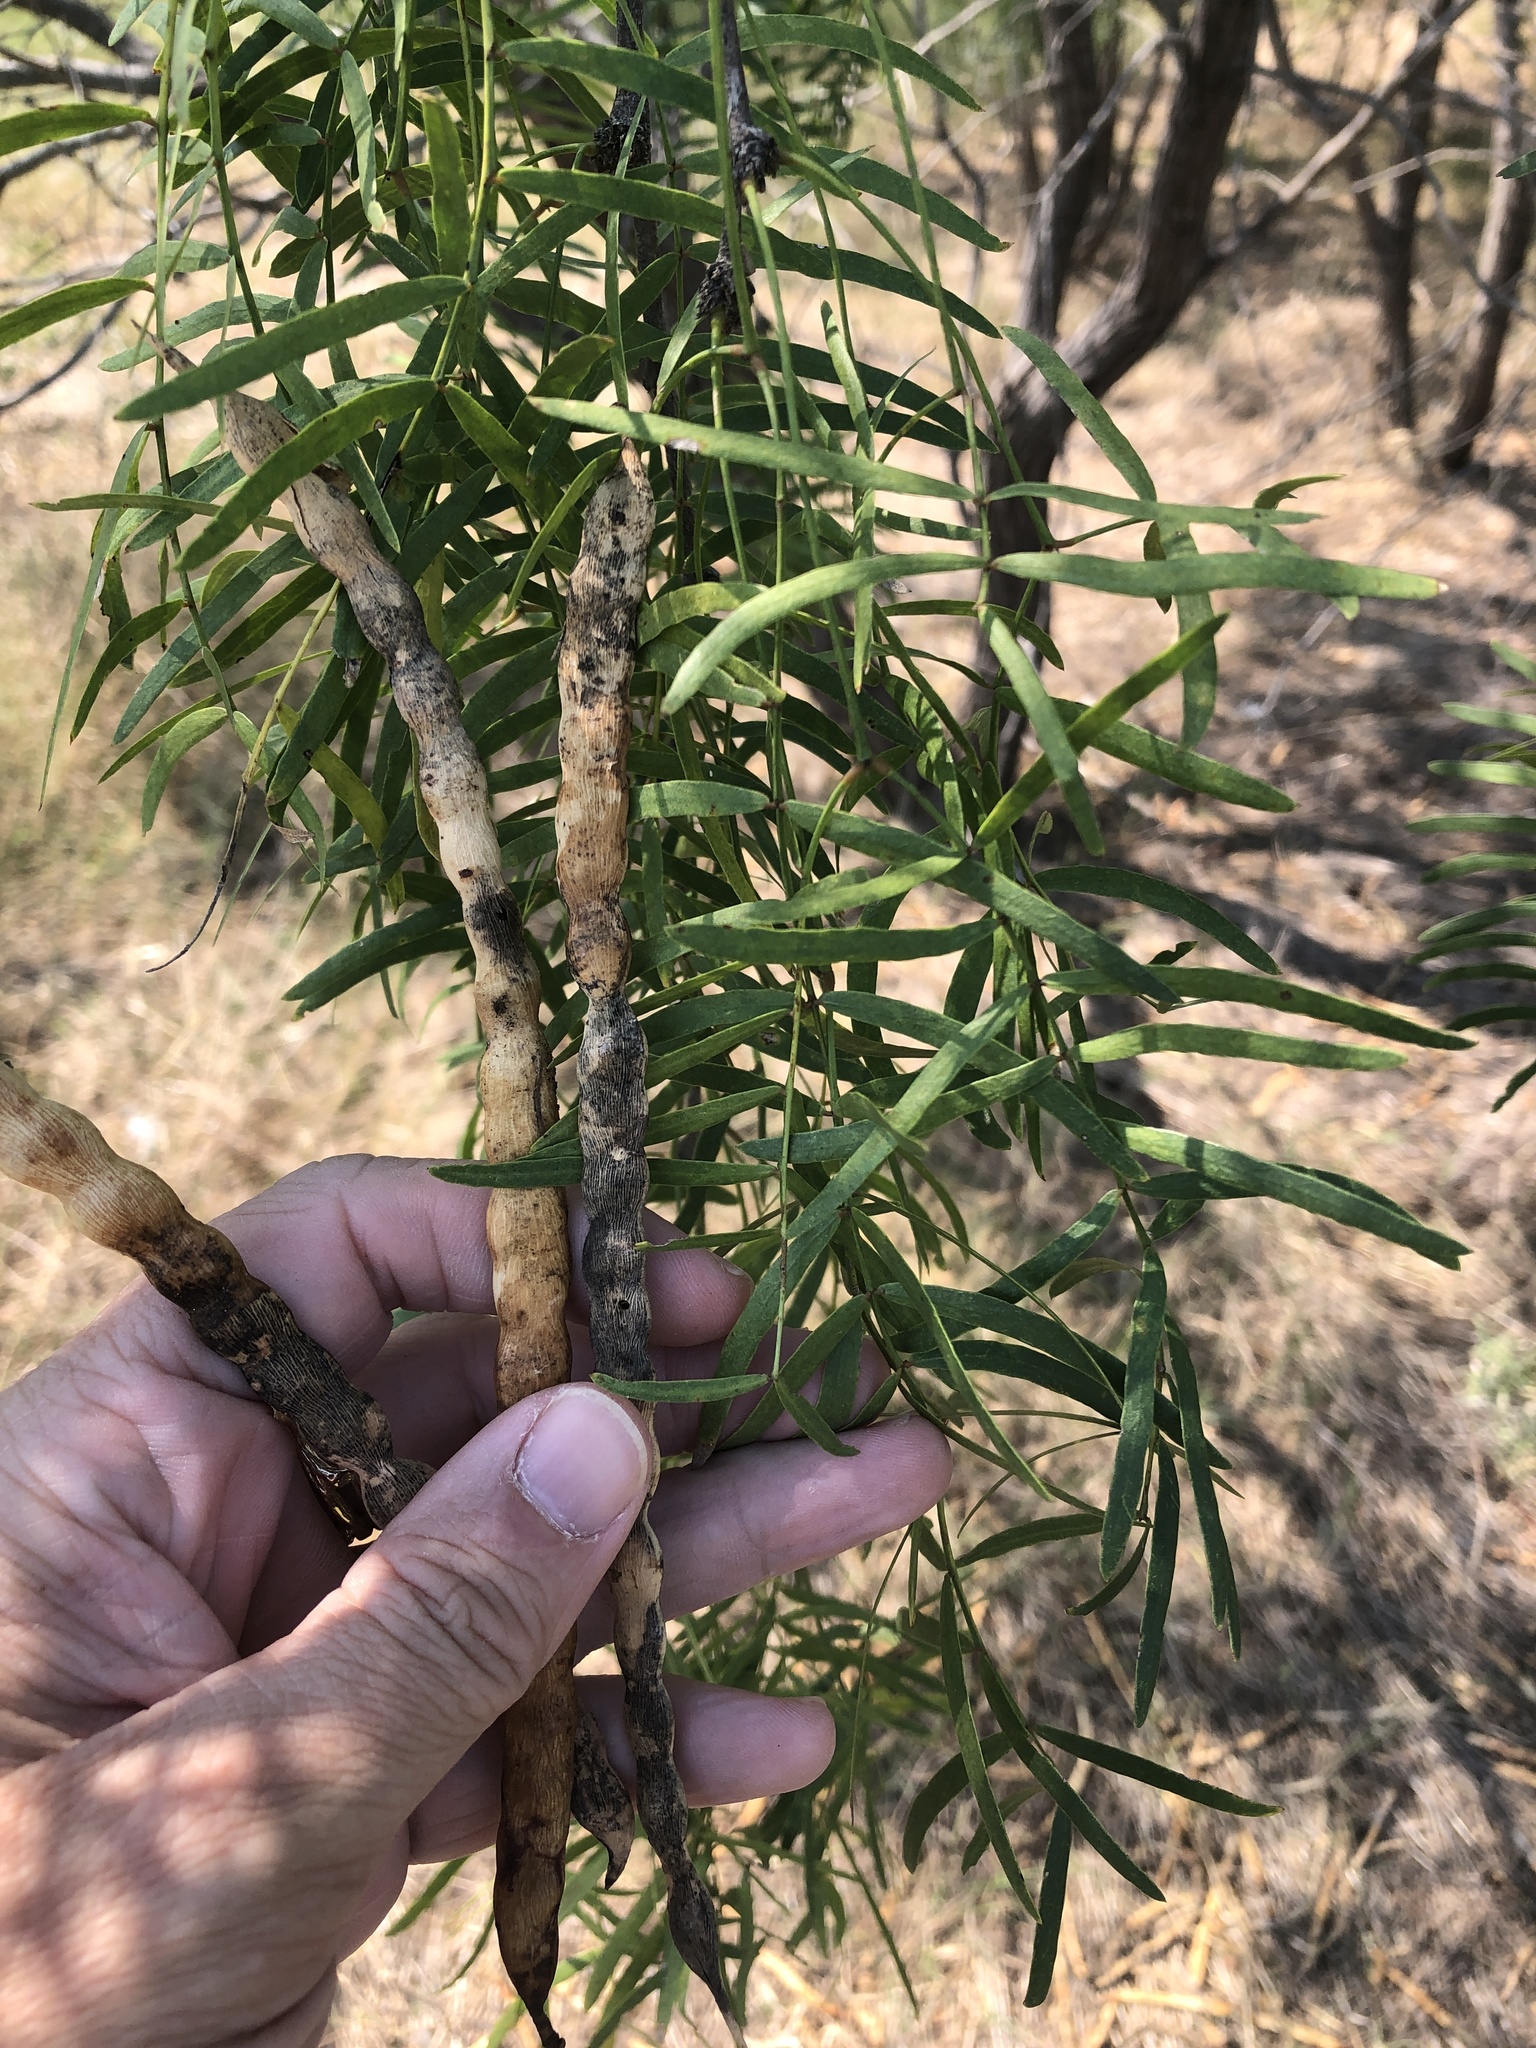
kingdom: Plantae
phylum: Tracheophyta
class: Magnoliopsida
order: Fabales
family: Fabaceae
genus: Prosopis
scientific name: Prosopis glandulosa
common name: Honey mesquite
